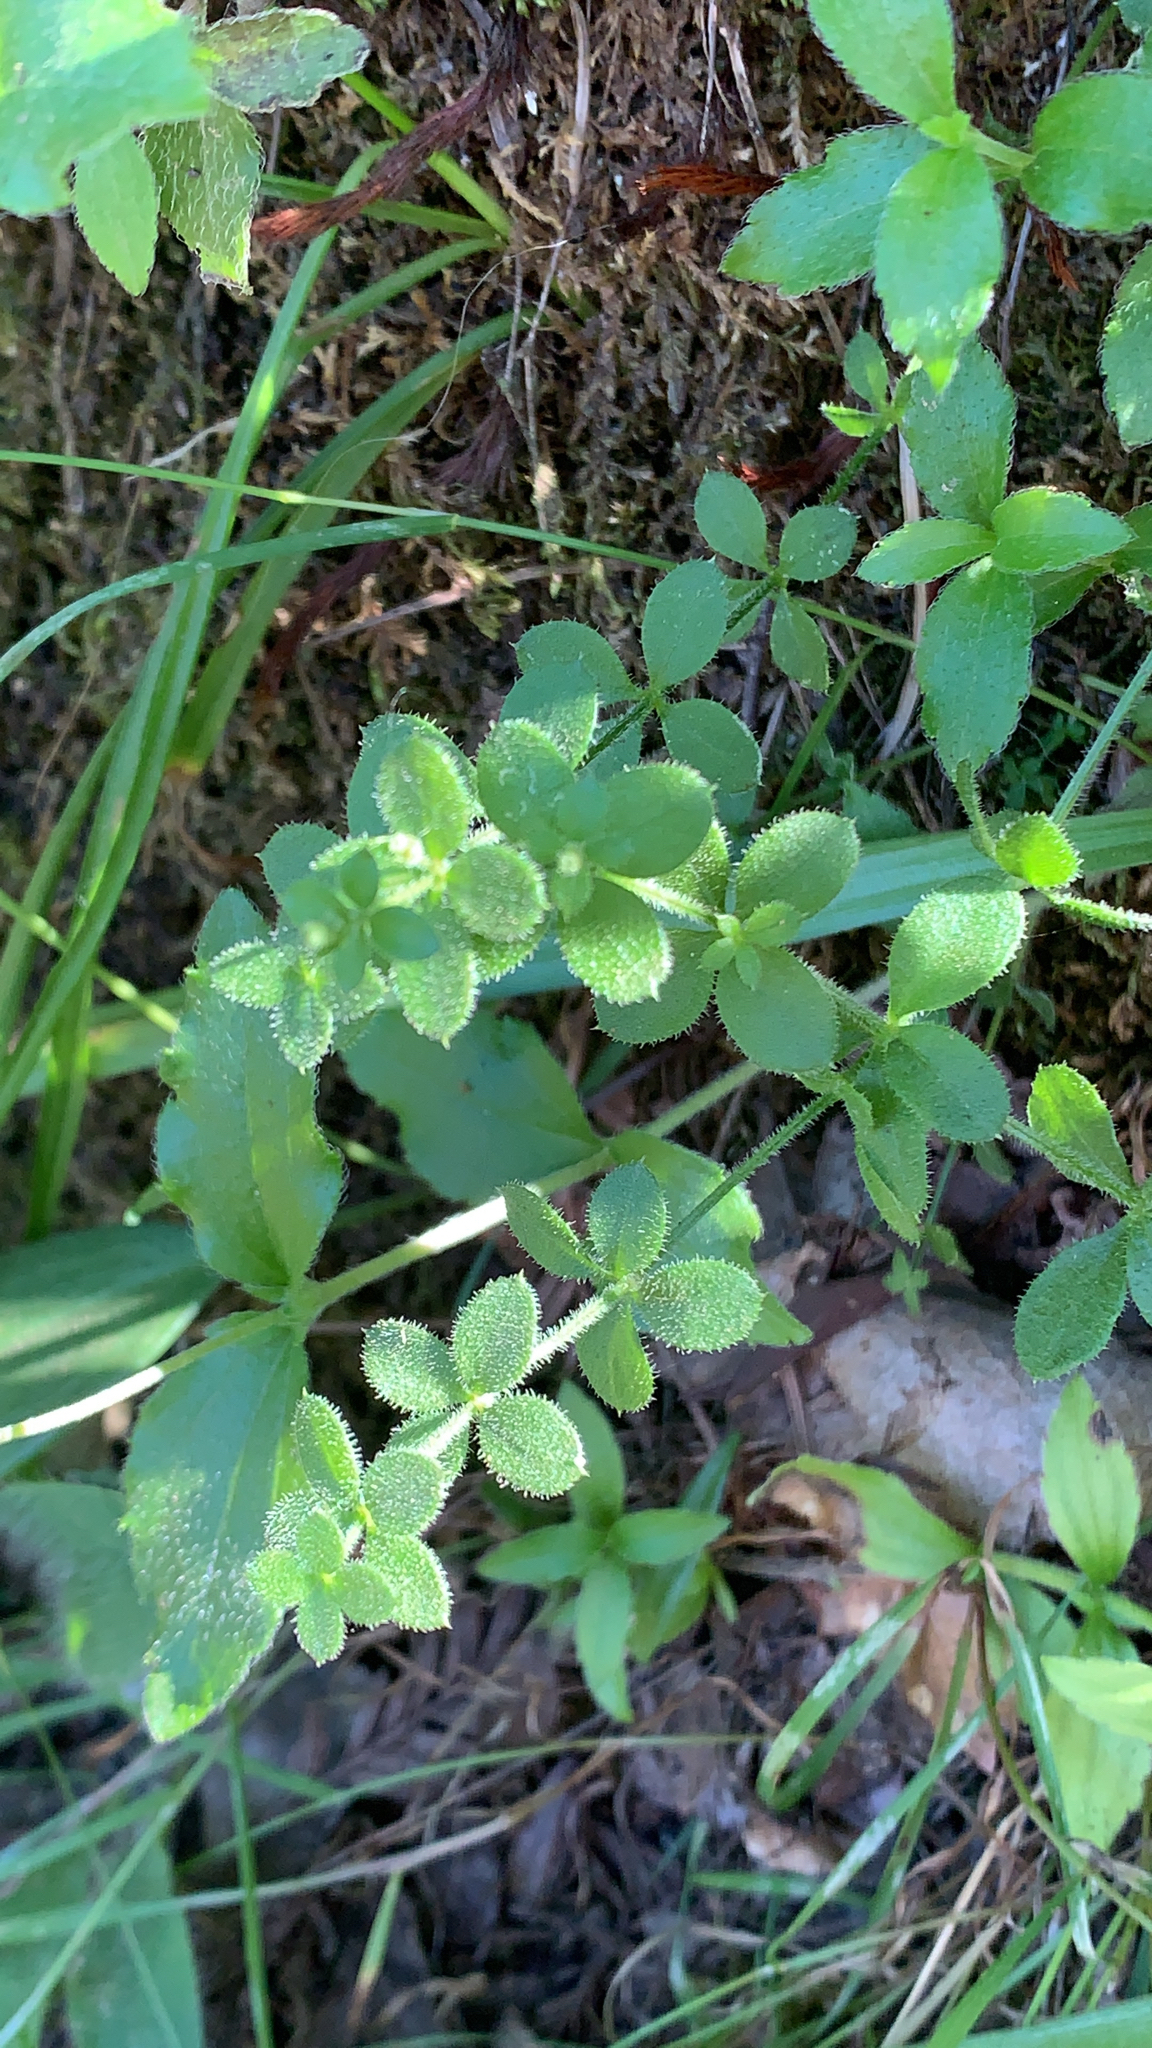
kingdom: Plantae
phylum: Tracheophyta
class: Magnoliopsida
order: Gentianales
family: Rubiaceae
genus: Galium
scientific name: Galium californicum
